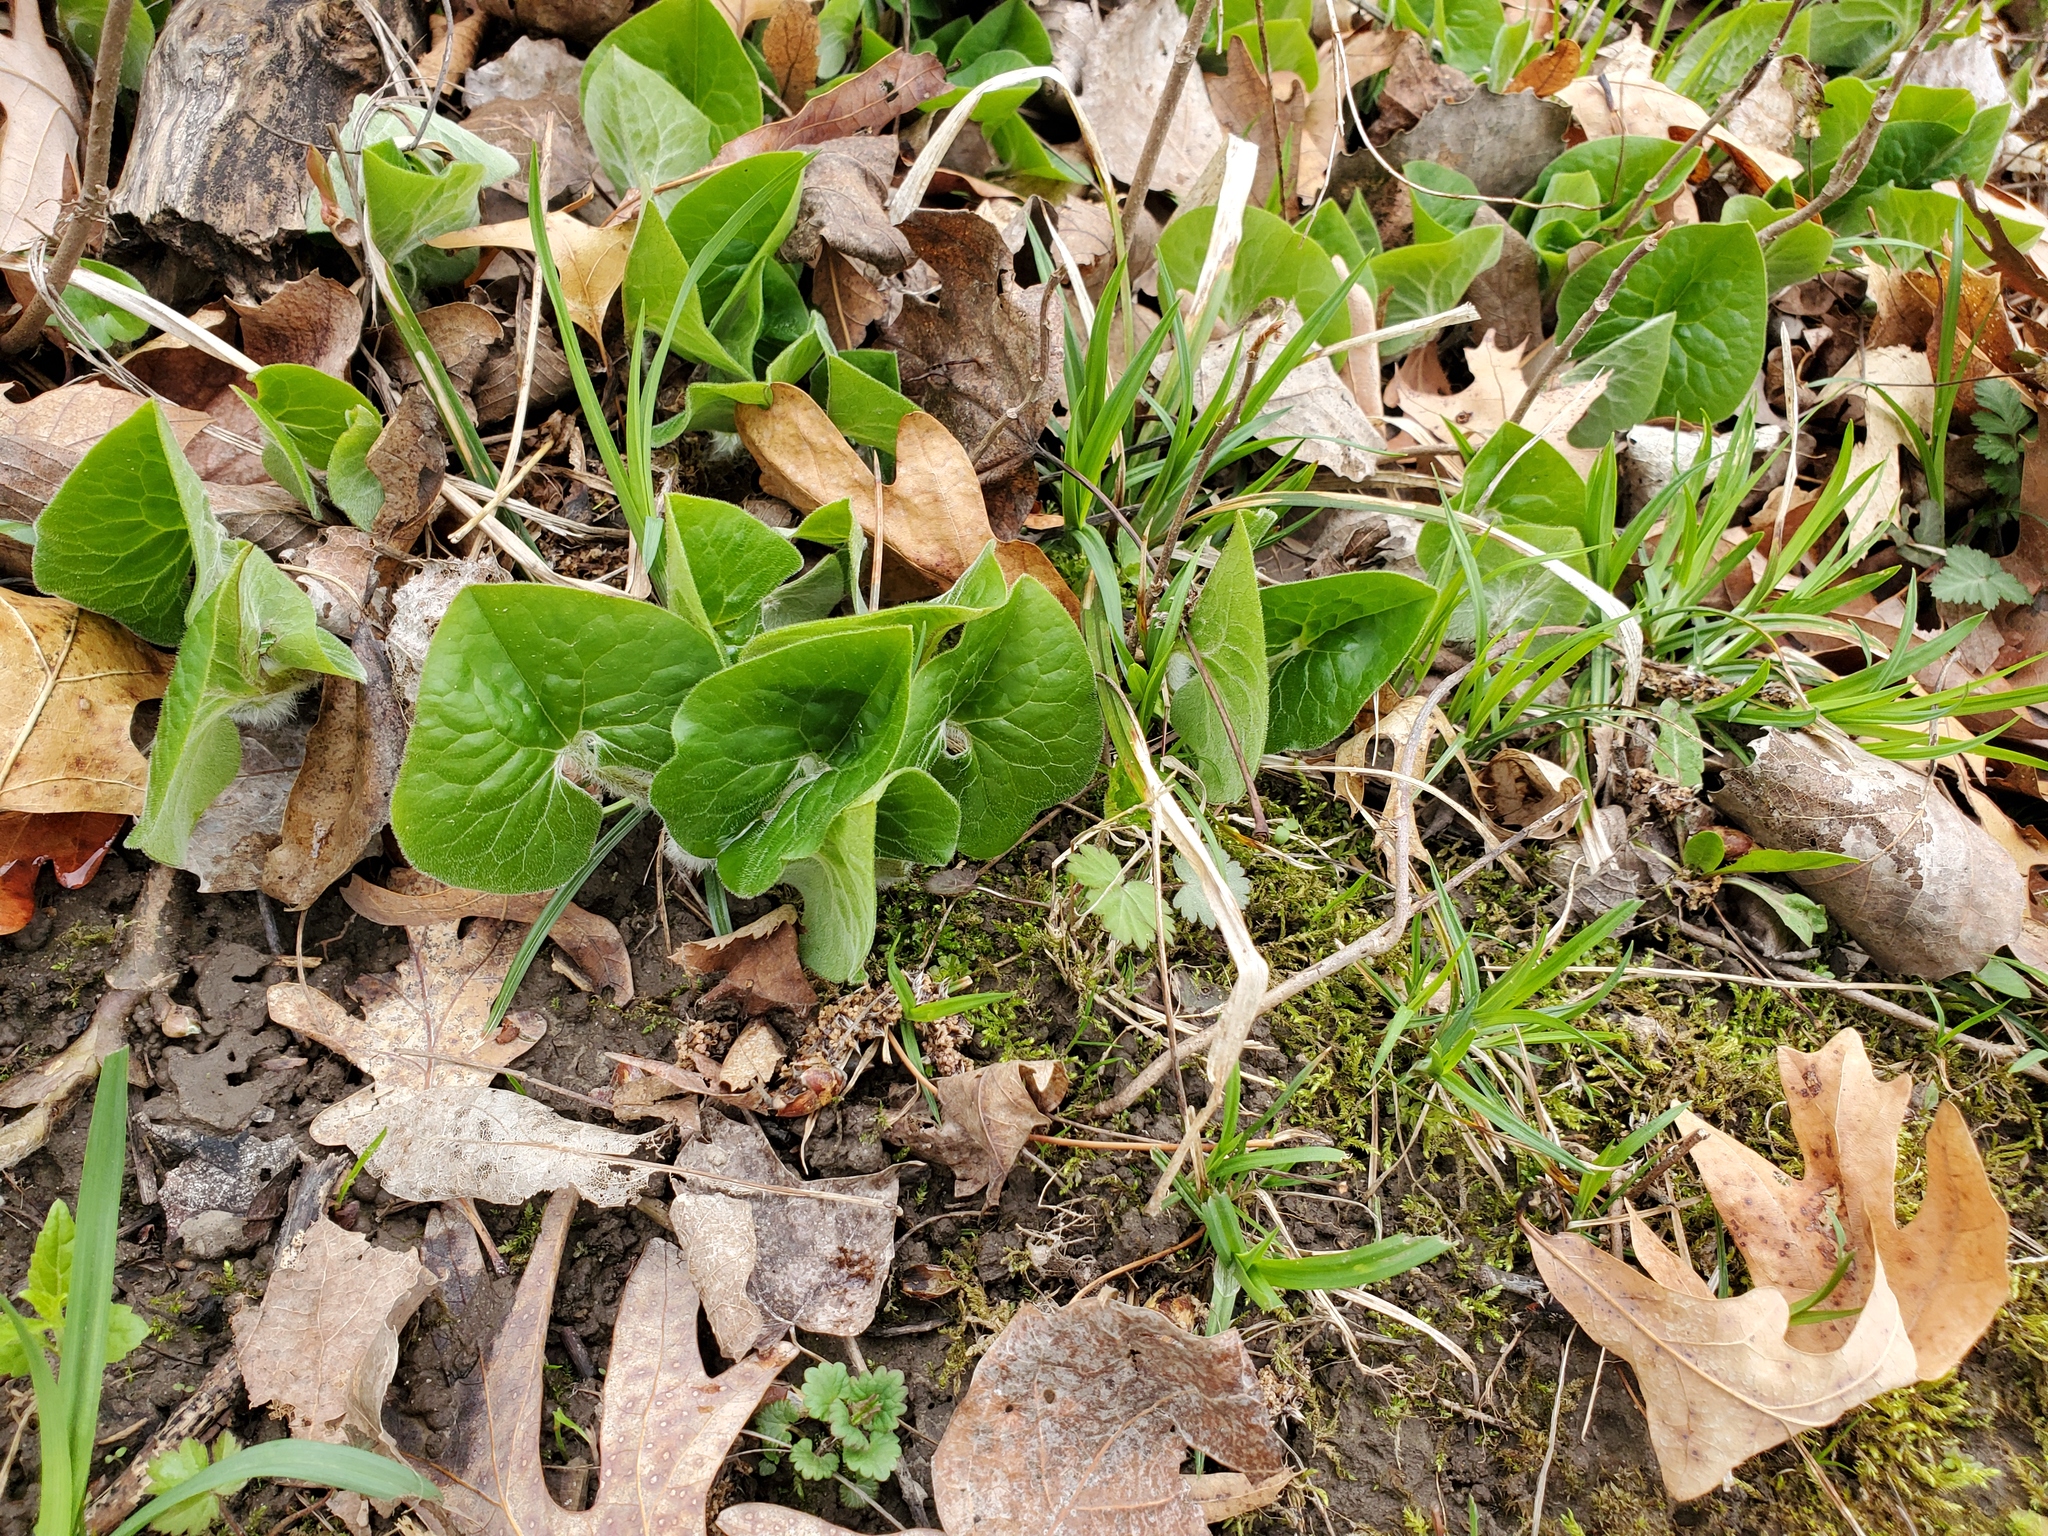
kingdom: Plantae
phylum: Tracheophyta
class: Magnoliopsida
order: Piperales
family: Aristolochiaceae
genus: Asarum
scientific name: Asarum canadense
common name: Wild ginger
